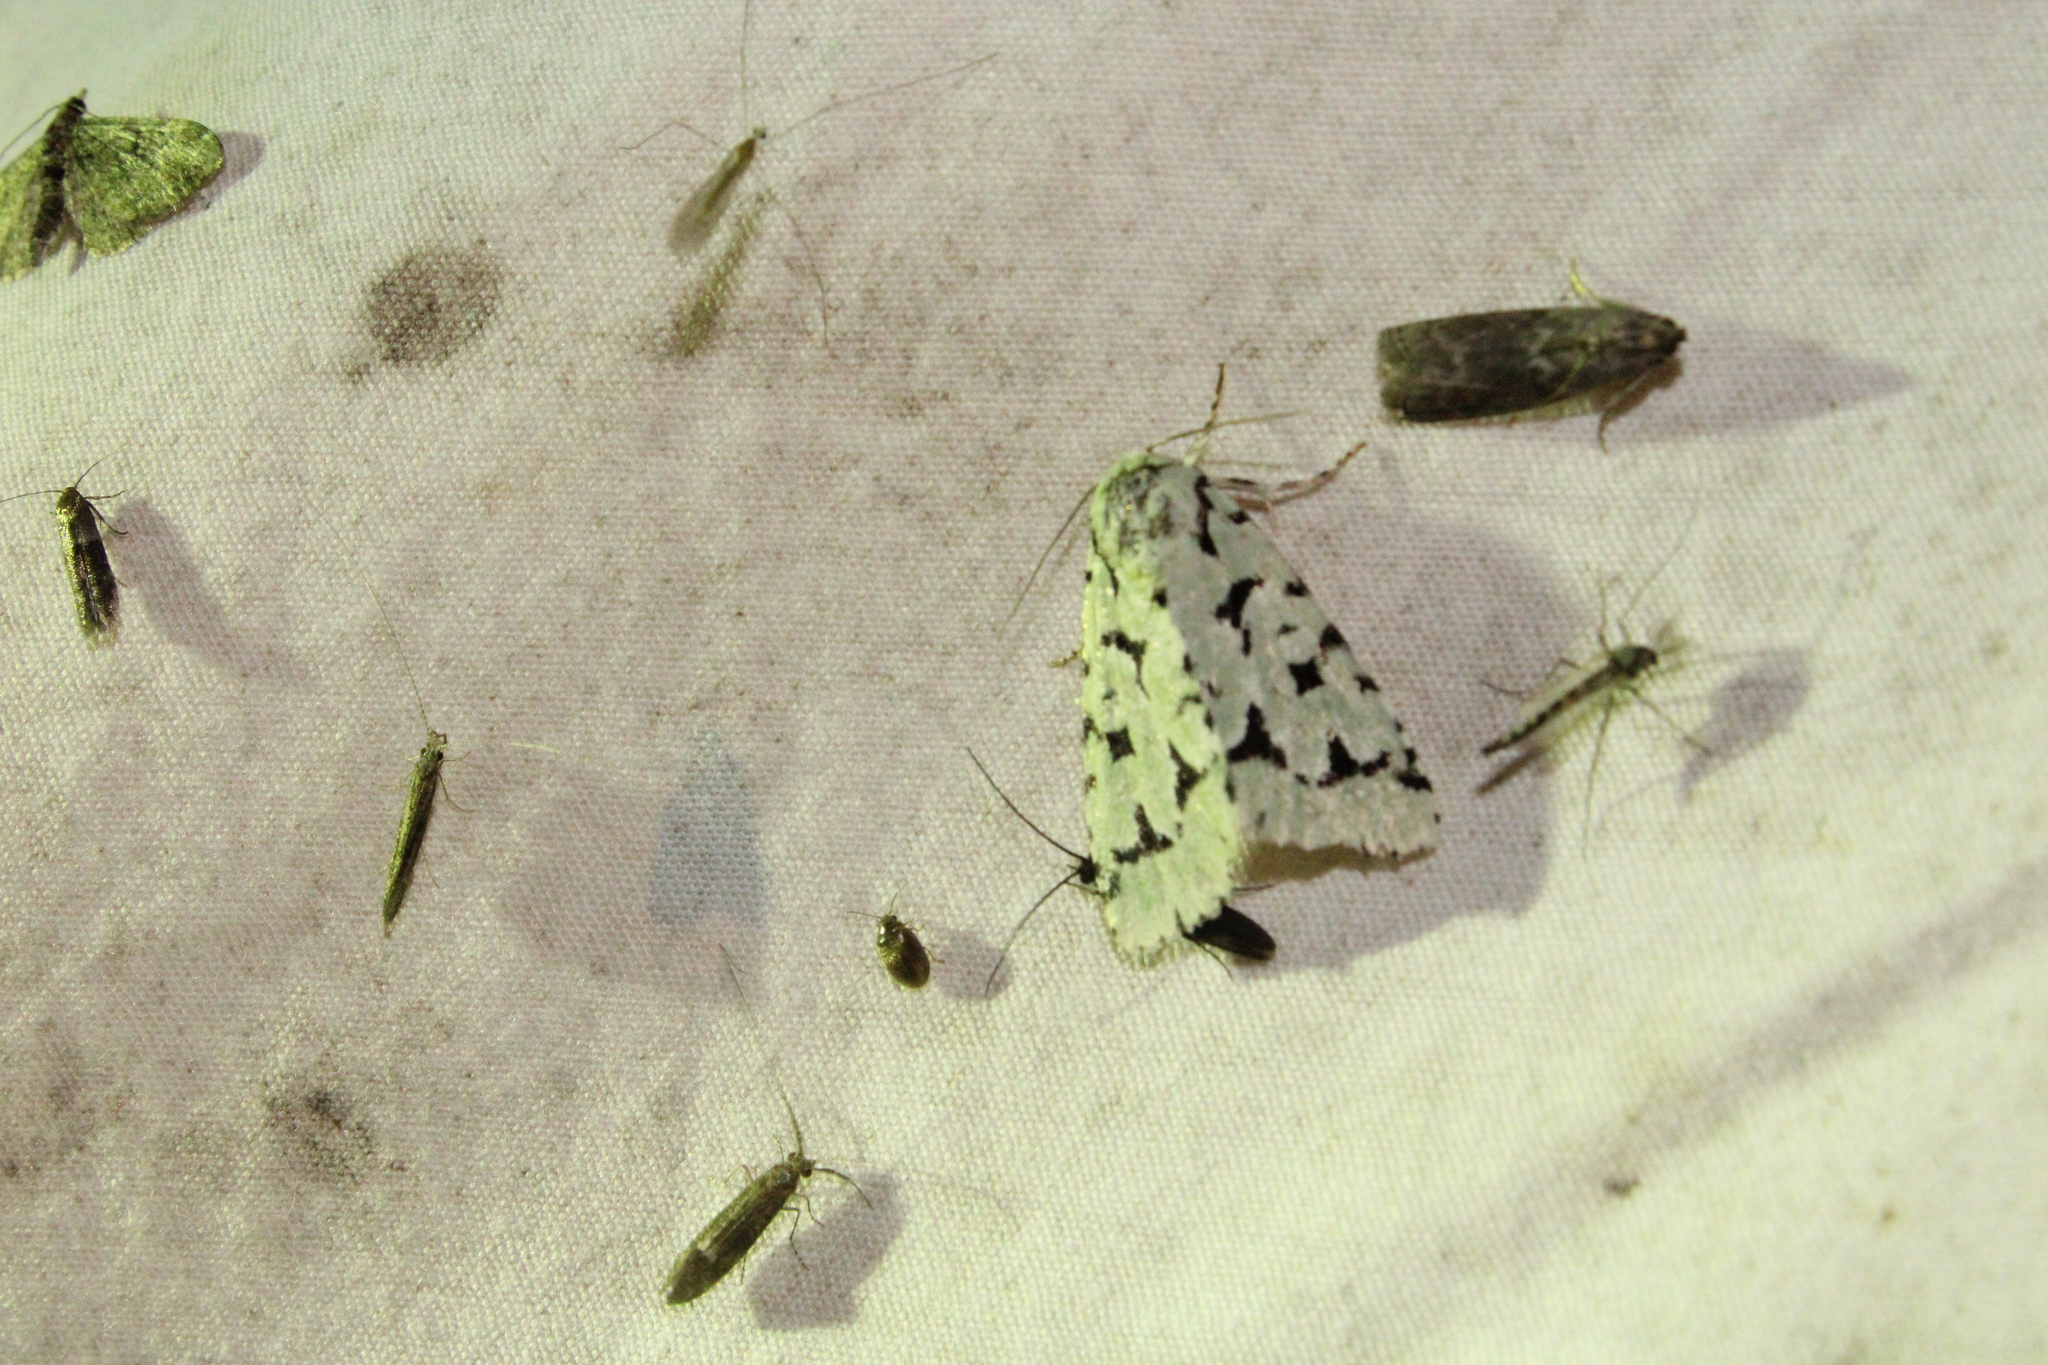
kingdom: Animalia
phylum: Arthropoda
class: Insecta
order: Lepidoptera
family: Noctuidae
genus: Acronicta
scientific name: Acronicta fallax
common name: Green marvel
